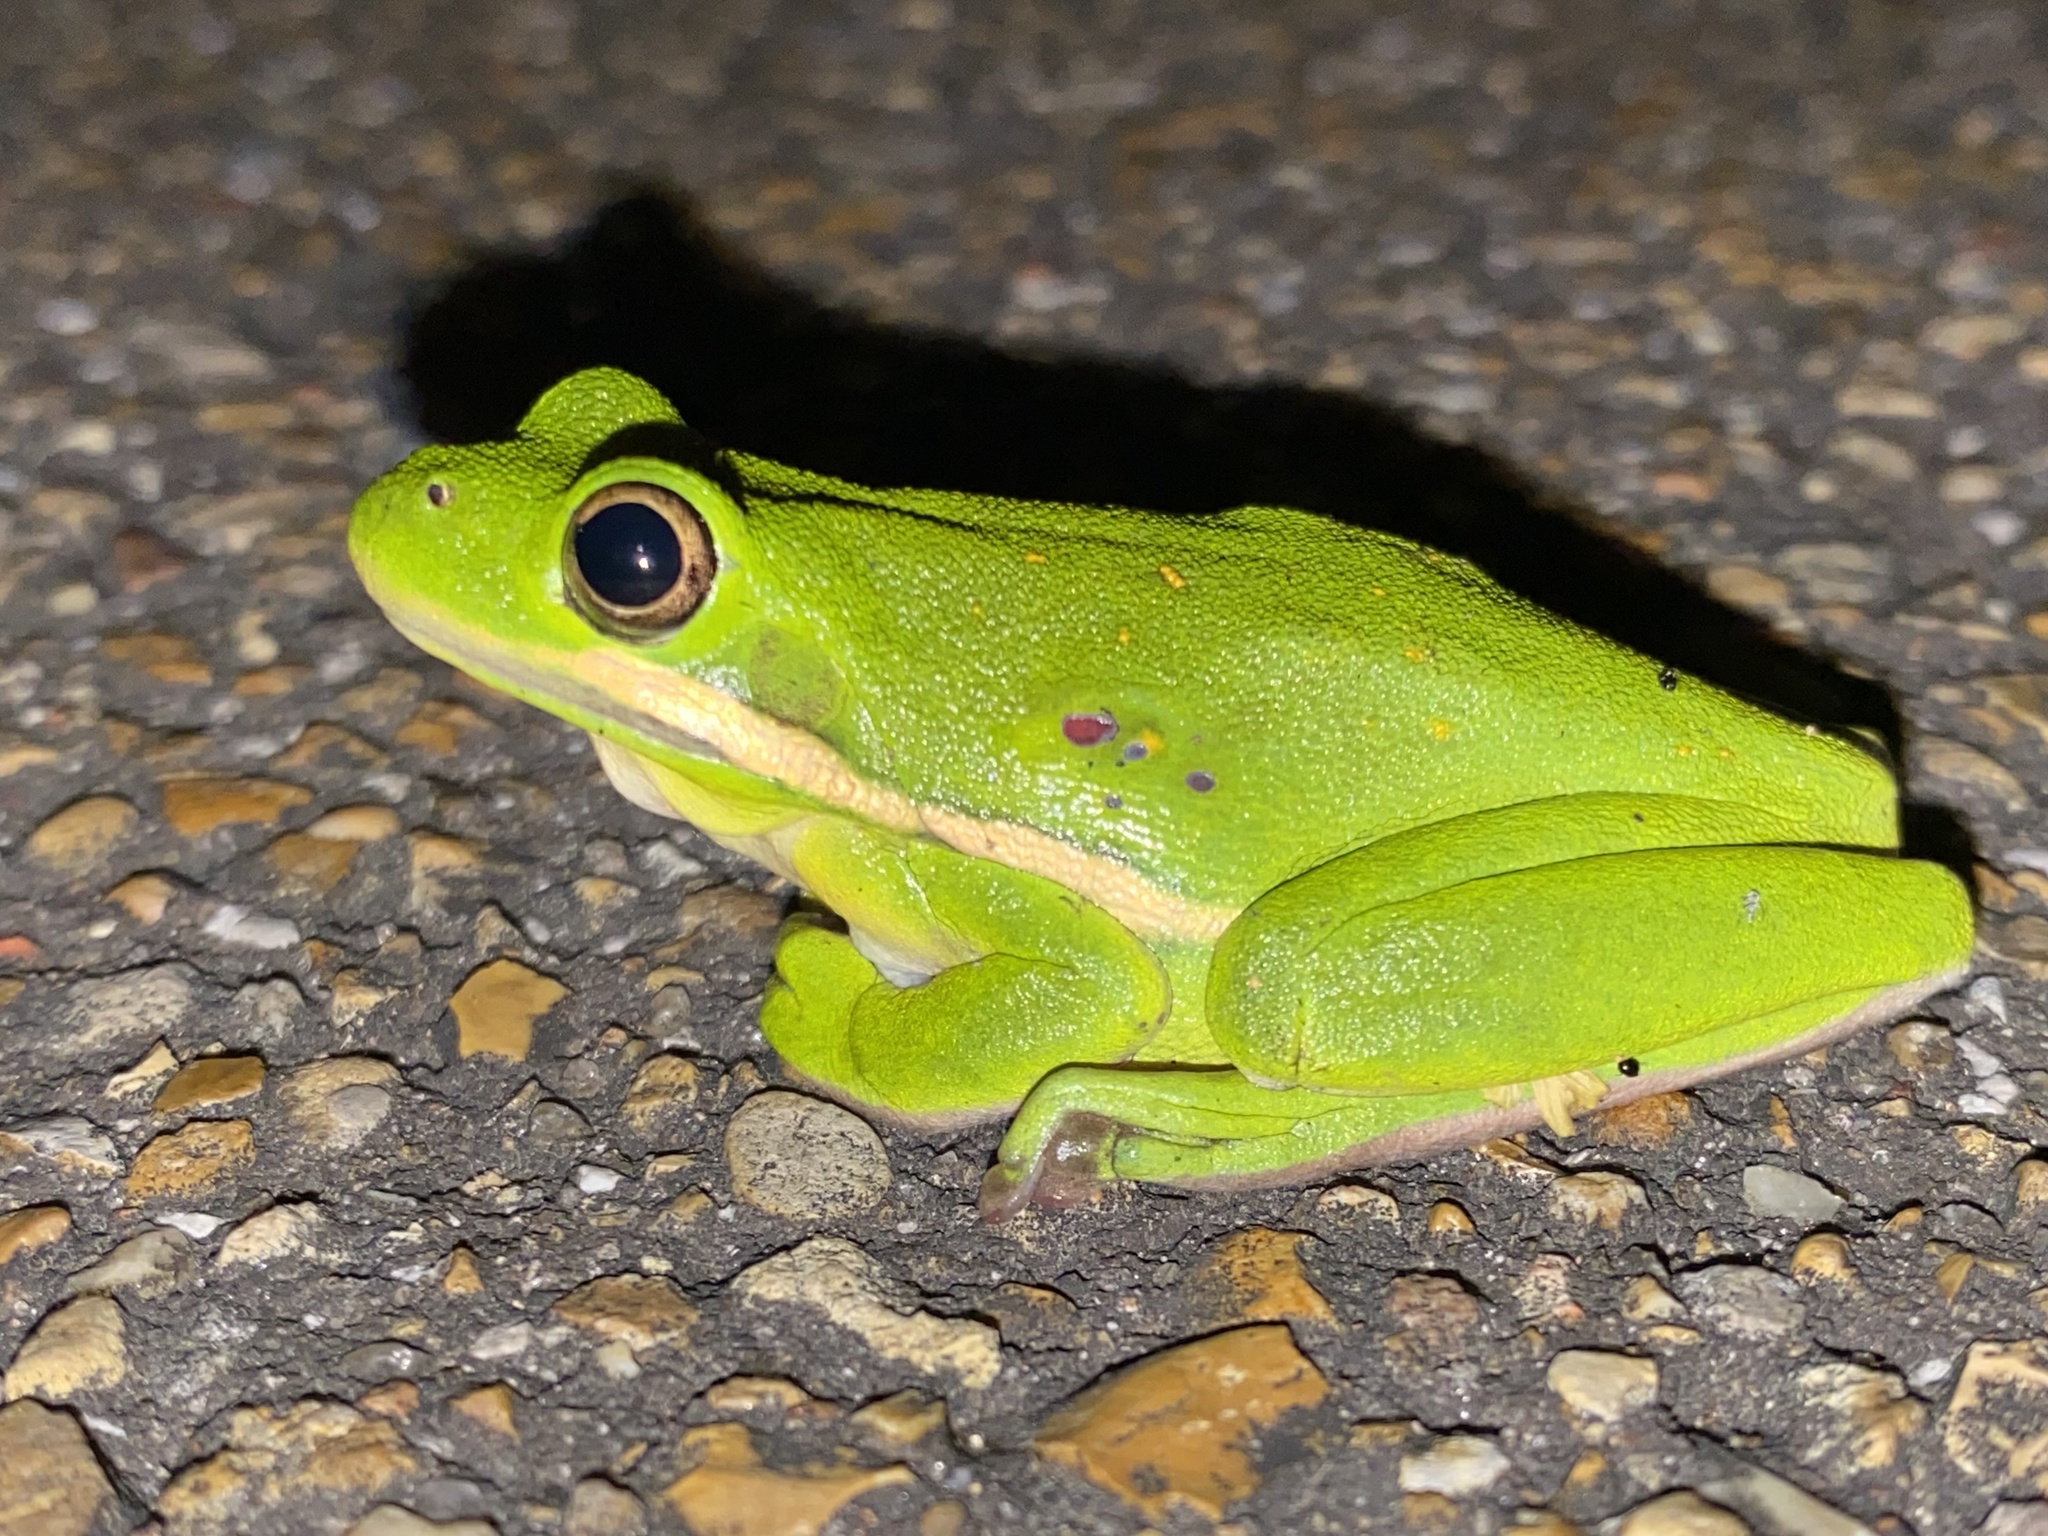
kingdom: Animalia
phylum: Chordata
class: Amphibia
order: Anura
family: Hylidae
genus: Dryophytes
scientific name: Dryophytes cinereus
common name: Green treefrog
